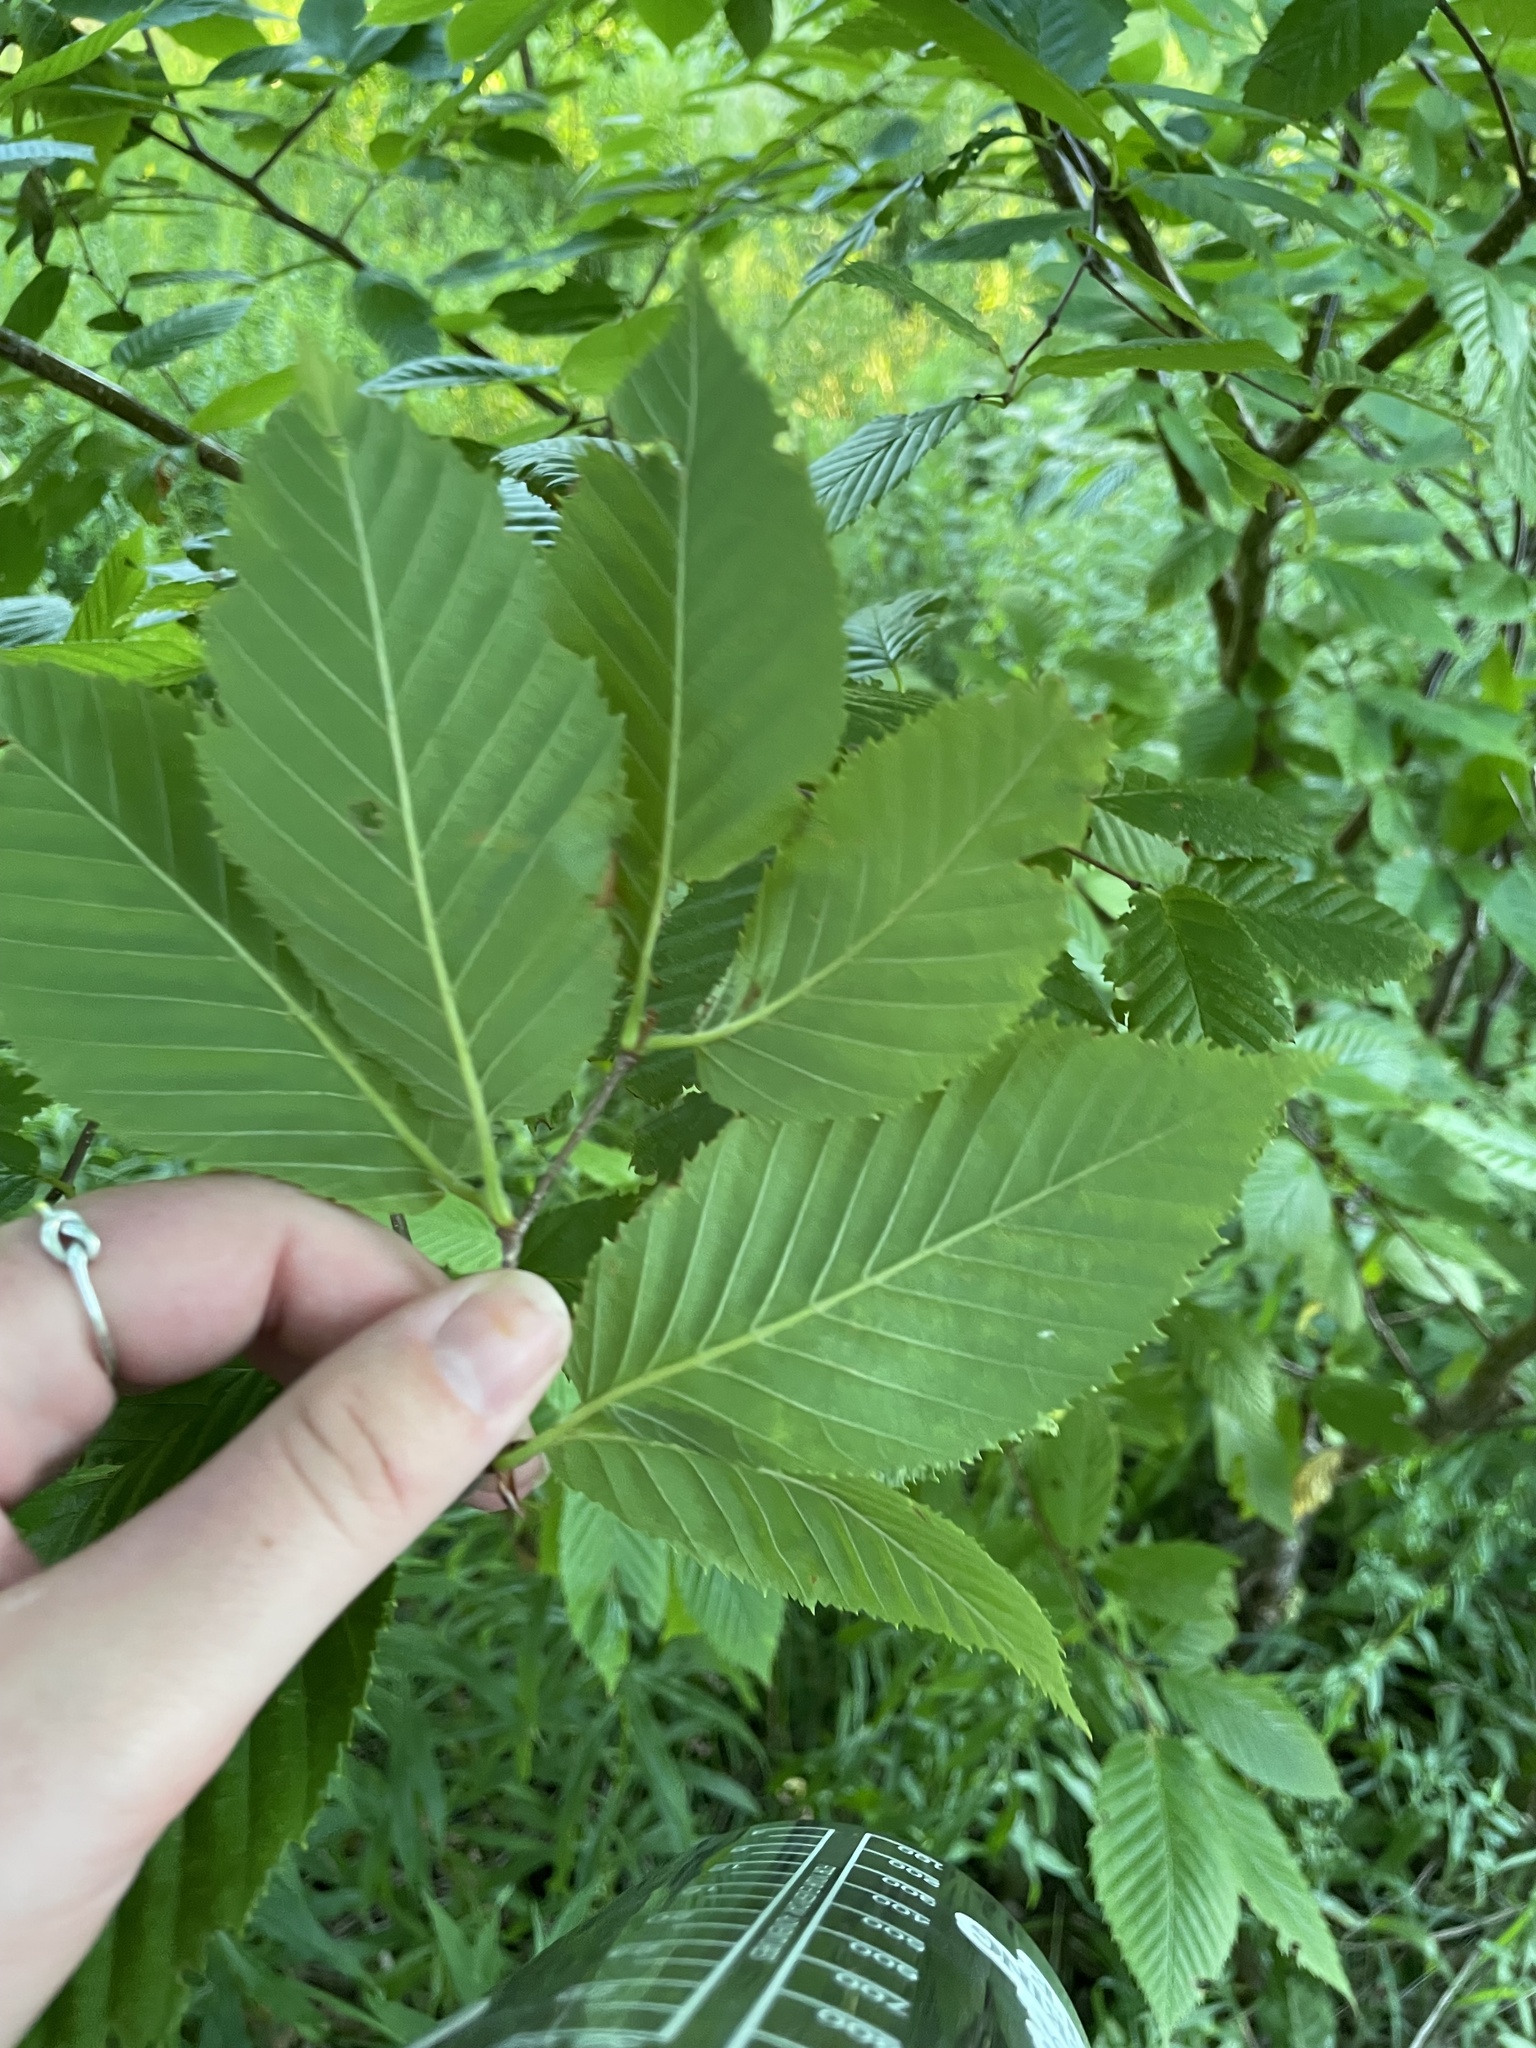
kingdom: Plantae
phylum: Tracheophyta
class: Magnoliopsida
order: Fagales
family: Betulaceae
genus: Betula
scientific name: Betula alleghaniensis
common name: Yellow birch
